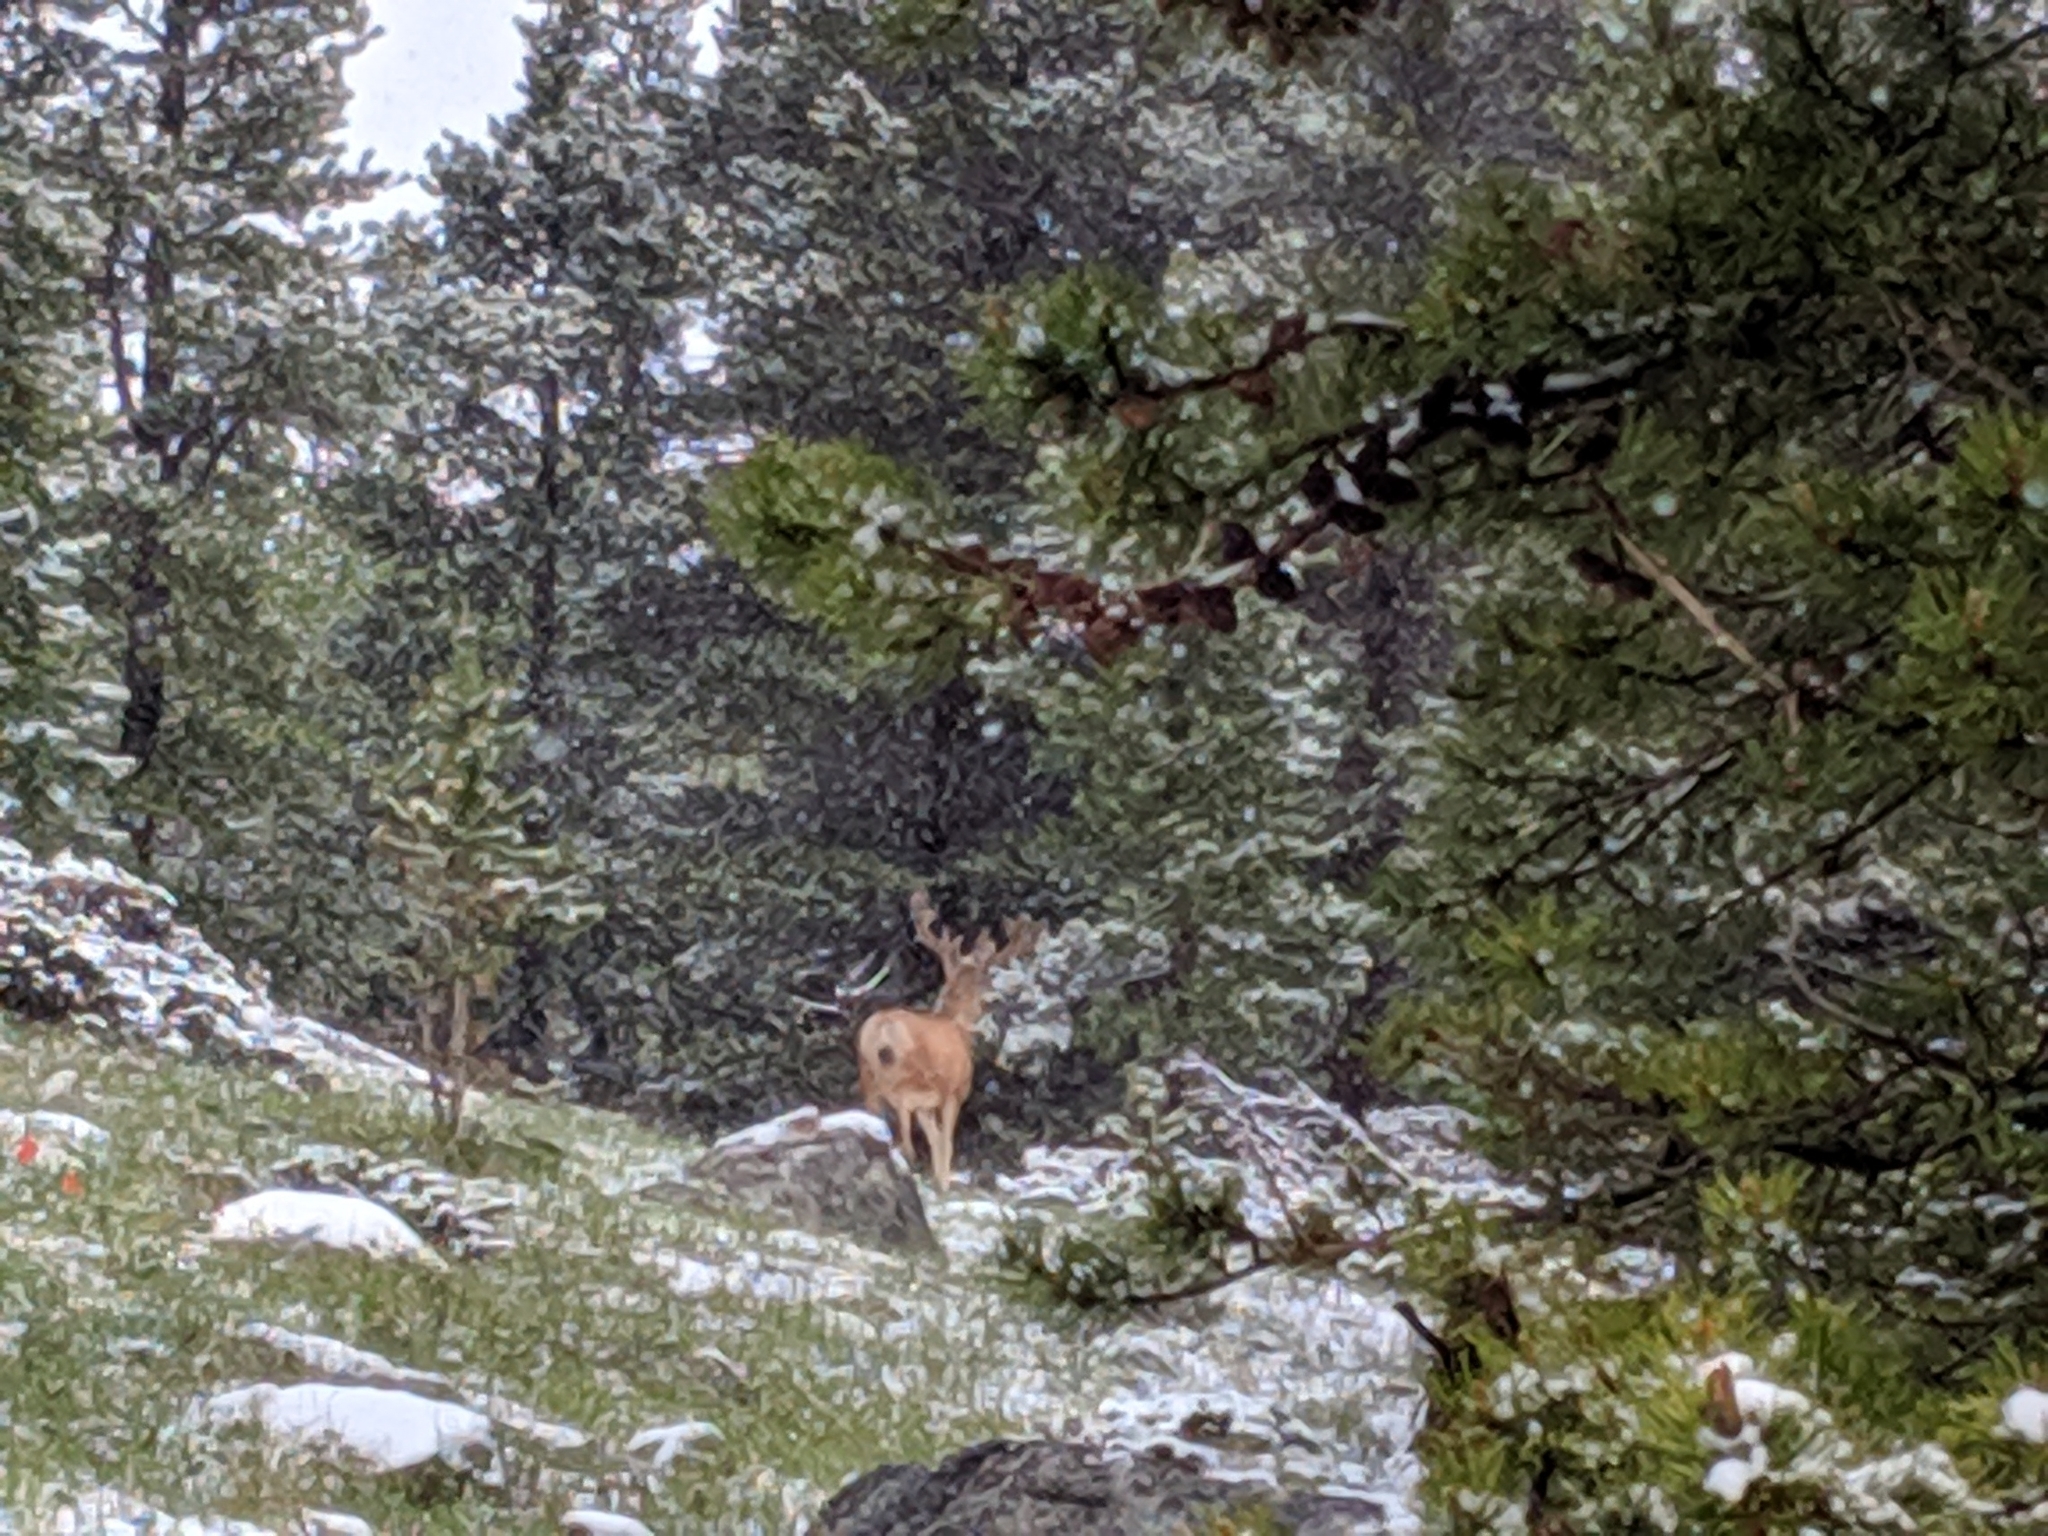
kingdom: Animalia
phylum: Chordata
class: Mammalia
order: Artiodactyla
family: Cervidae
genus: Odocoileus
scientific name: Odocoileus hemionus
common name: Mule deer
